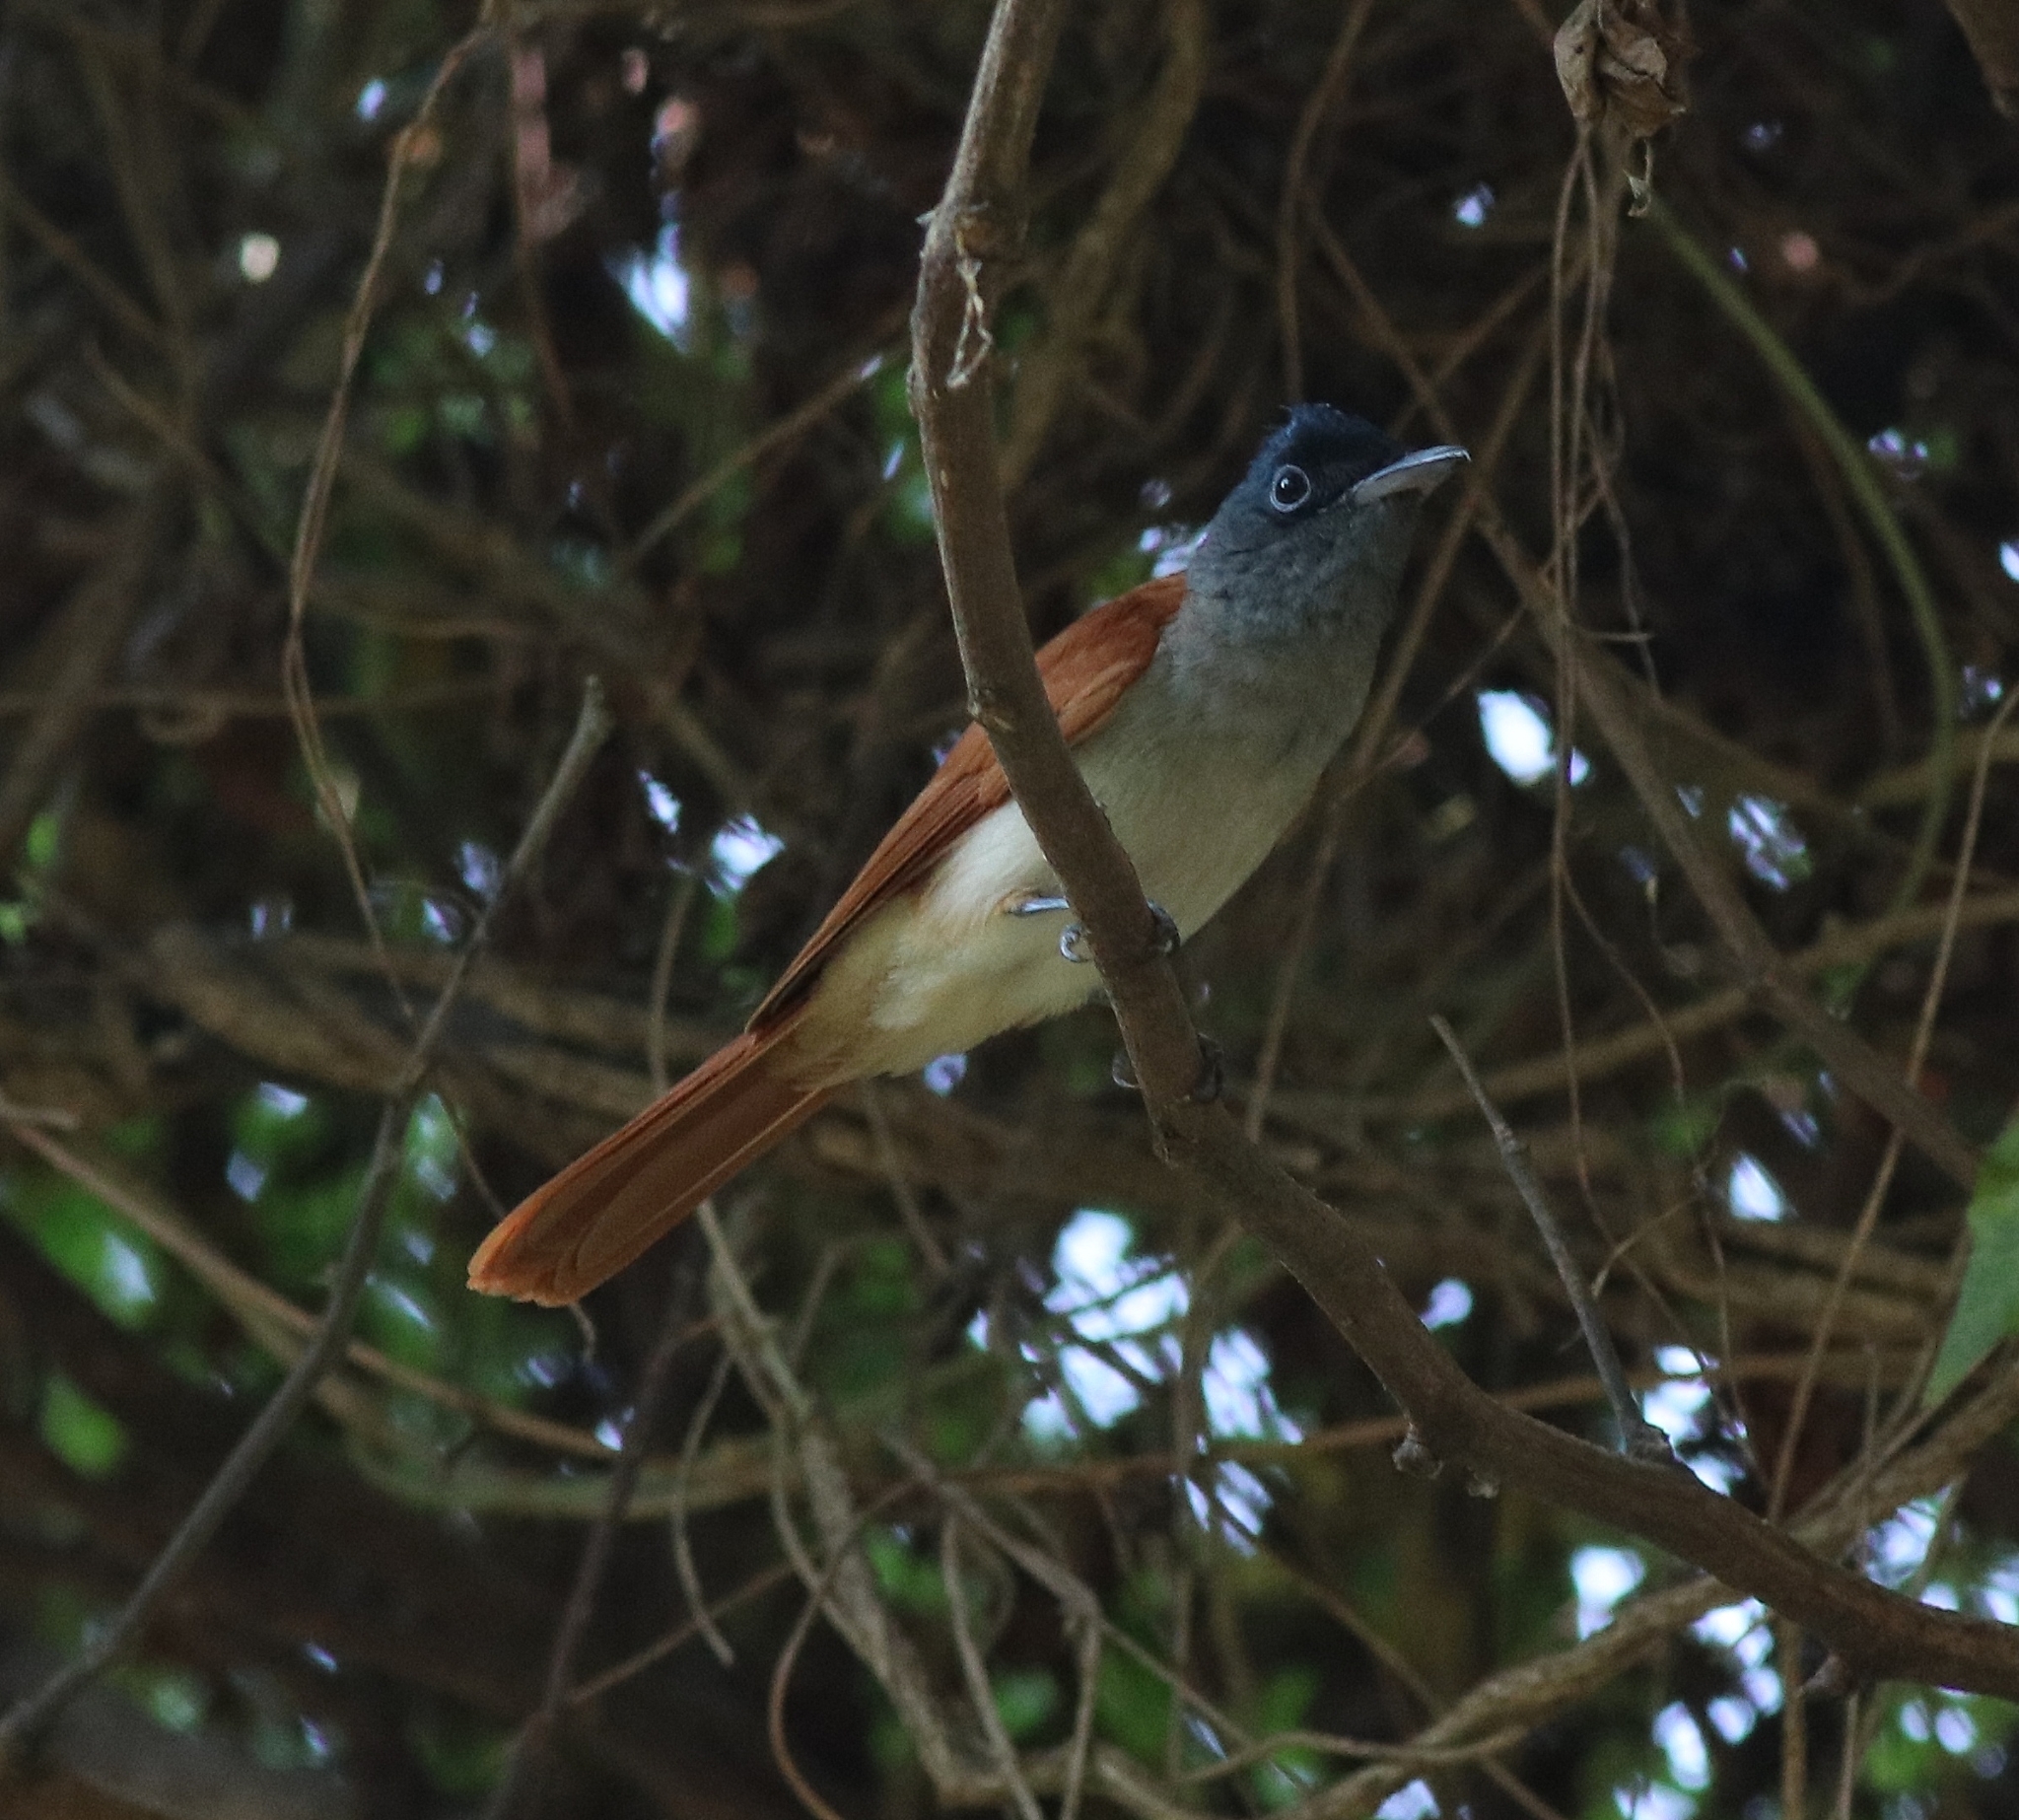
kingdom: Animalia
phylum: Chordata
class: Aves
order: Passeriformes
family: Monarchidae
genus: Terpsiphone
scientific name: Terpsiphone paradisi
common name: Indian paradise flycatcher
